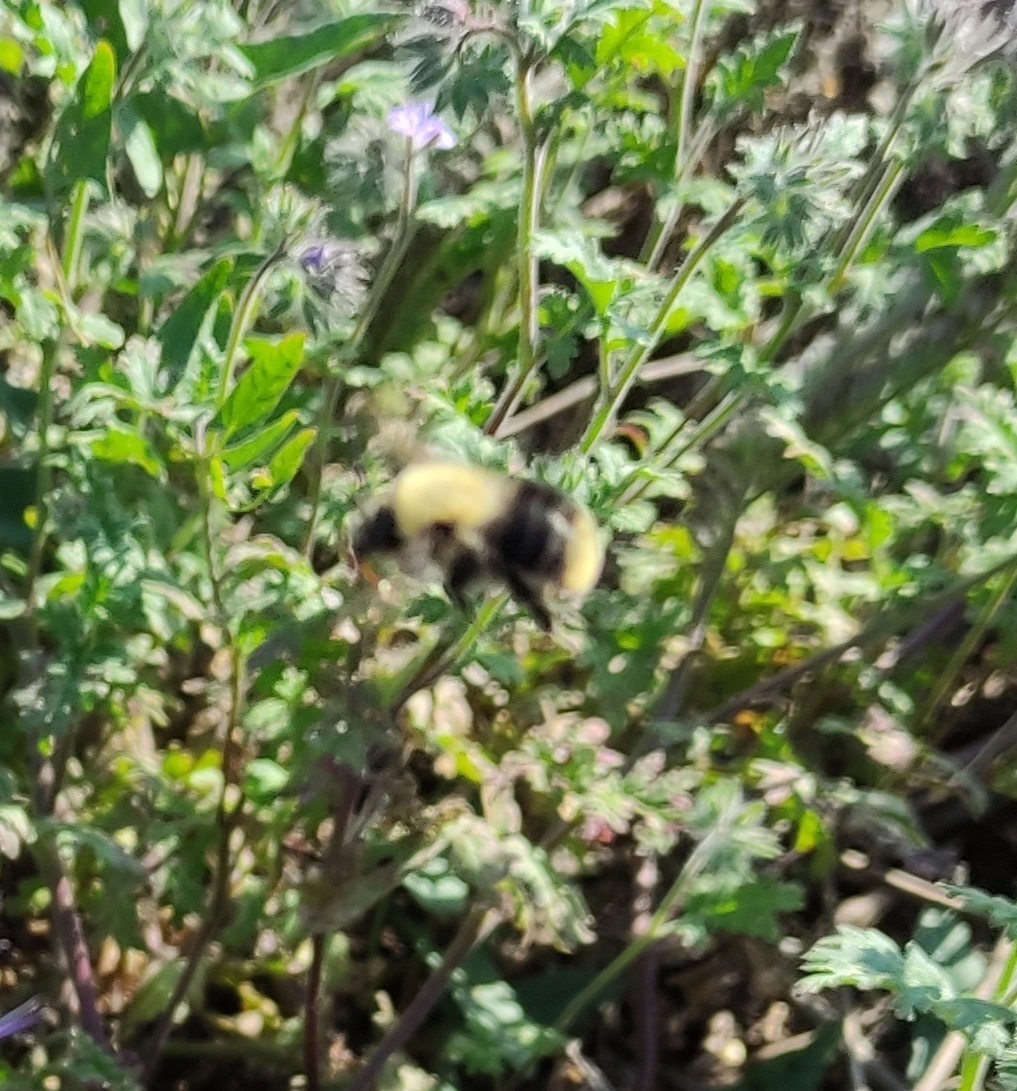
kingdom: Animalia
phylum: Arthropoda
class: Insecta
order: Hymenoptera
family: Apidae
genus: Bombus
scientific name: Bombus pascuorum
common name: Common carder bee
